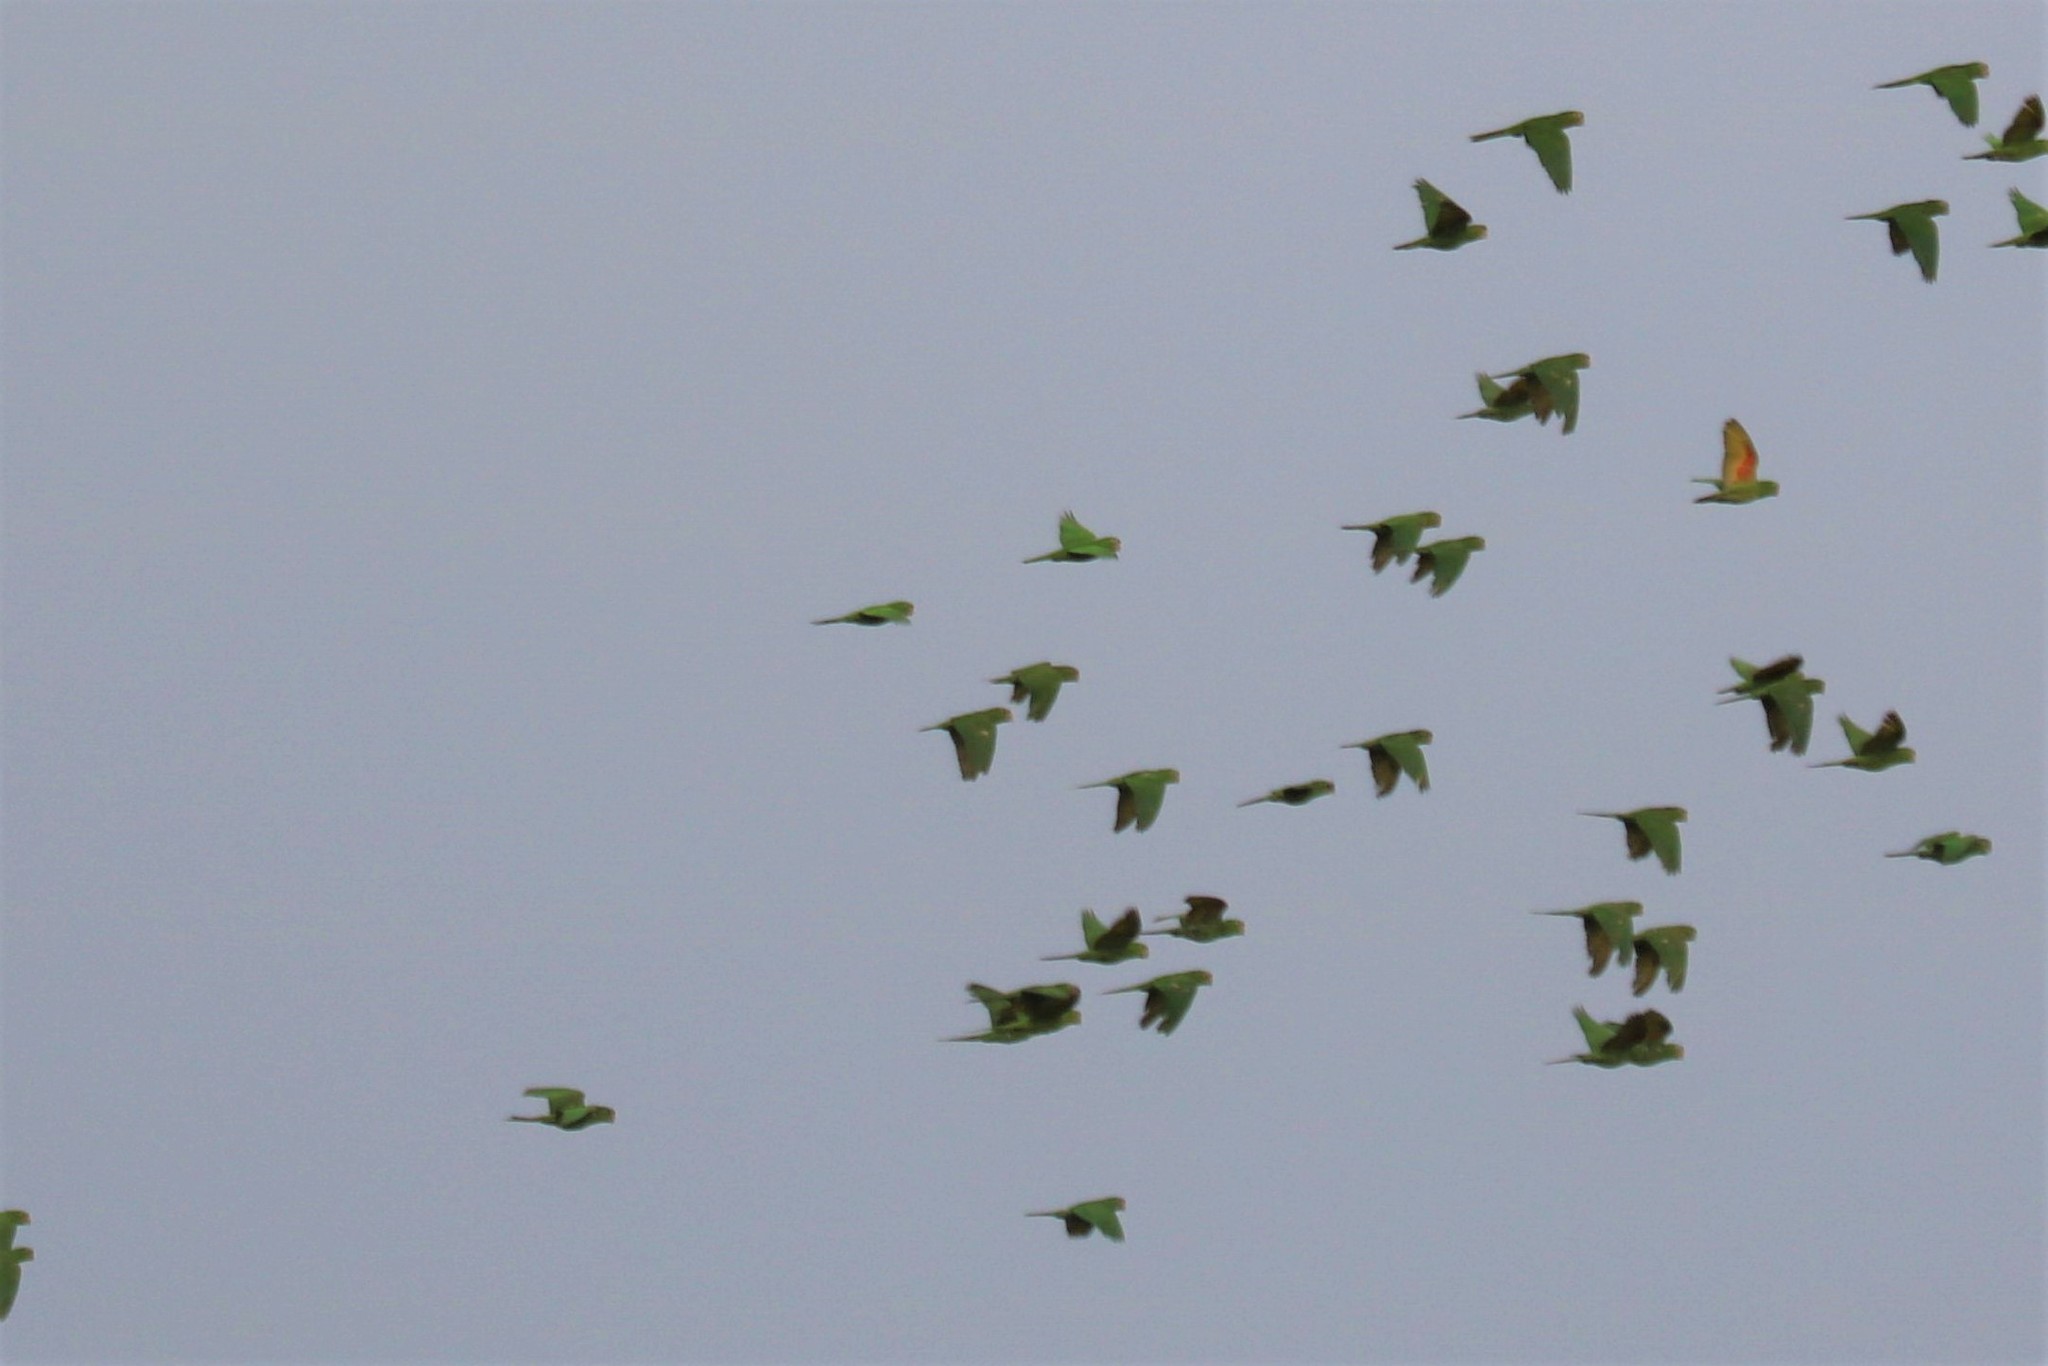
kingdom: Animalia
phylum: Chordata
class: Aves
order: Psittaciformes
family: Psittacidae
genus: Aratinga
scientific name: Aratinga leucophthalma
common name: White-eyed parakeet
